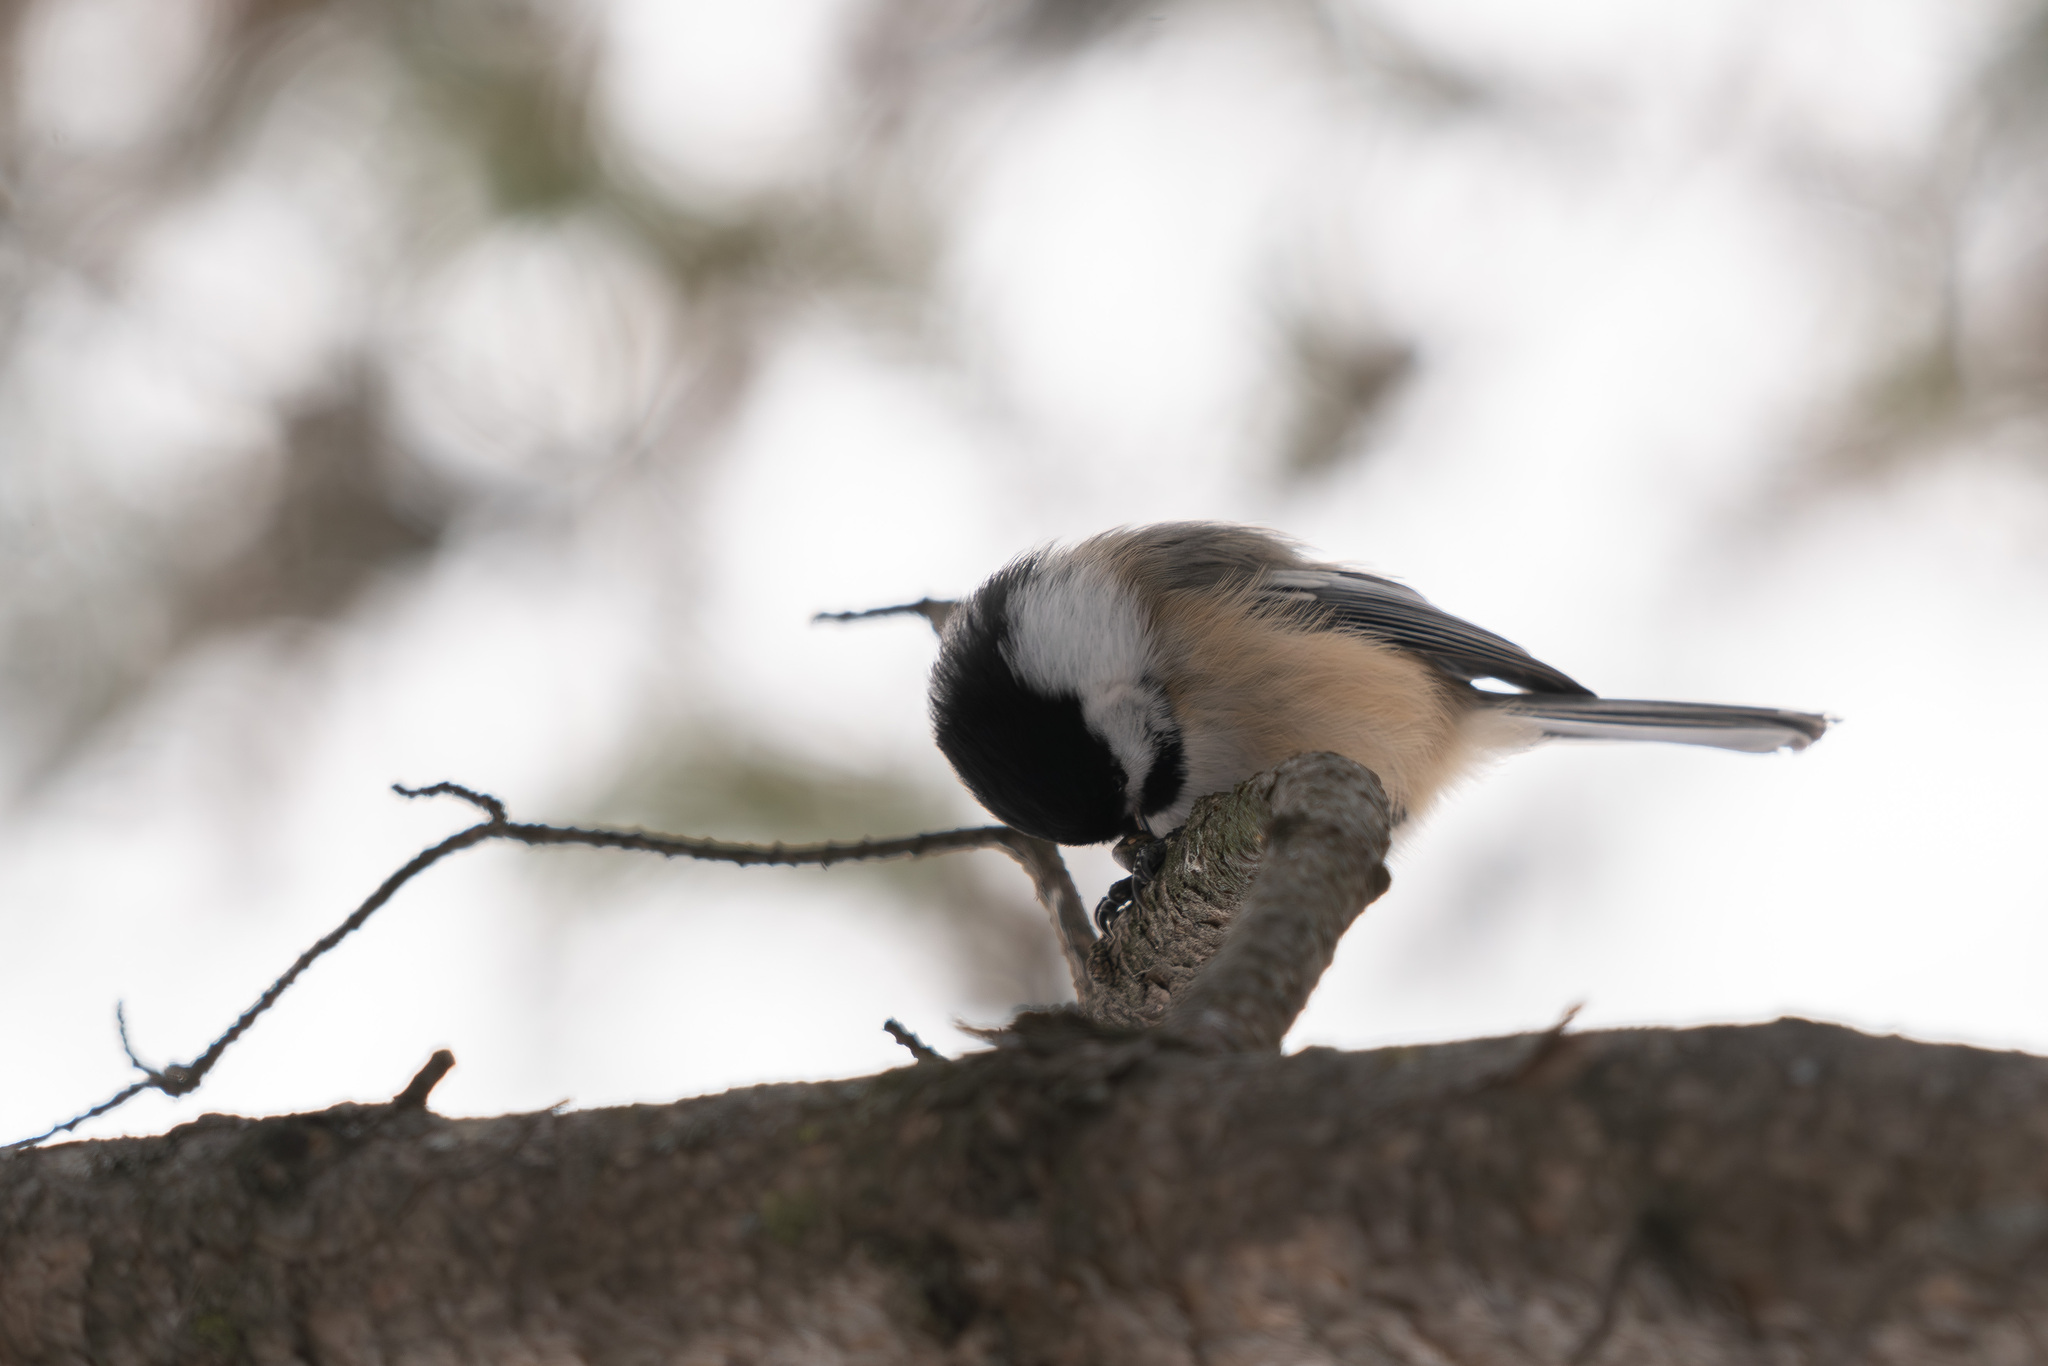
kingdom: Animalia
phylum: Chordata
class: Aves
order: Passeriformes
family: Paridae
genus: Poecile
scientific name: Poecile atricapillus
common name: Black-capped chickadee
